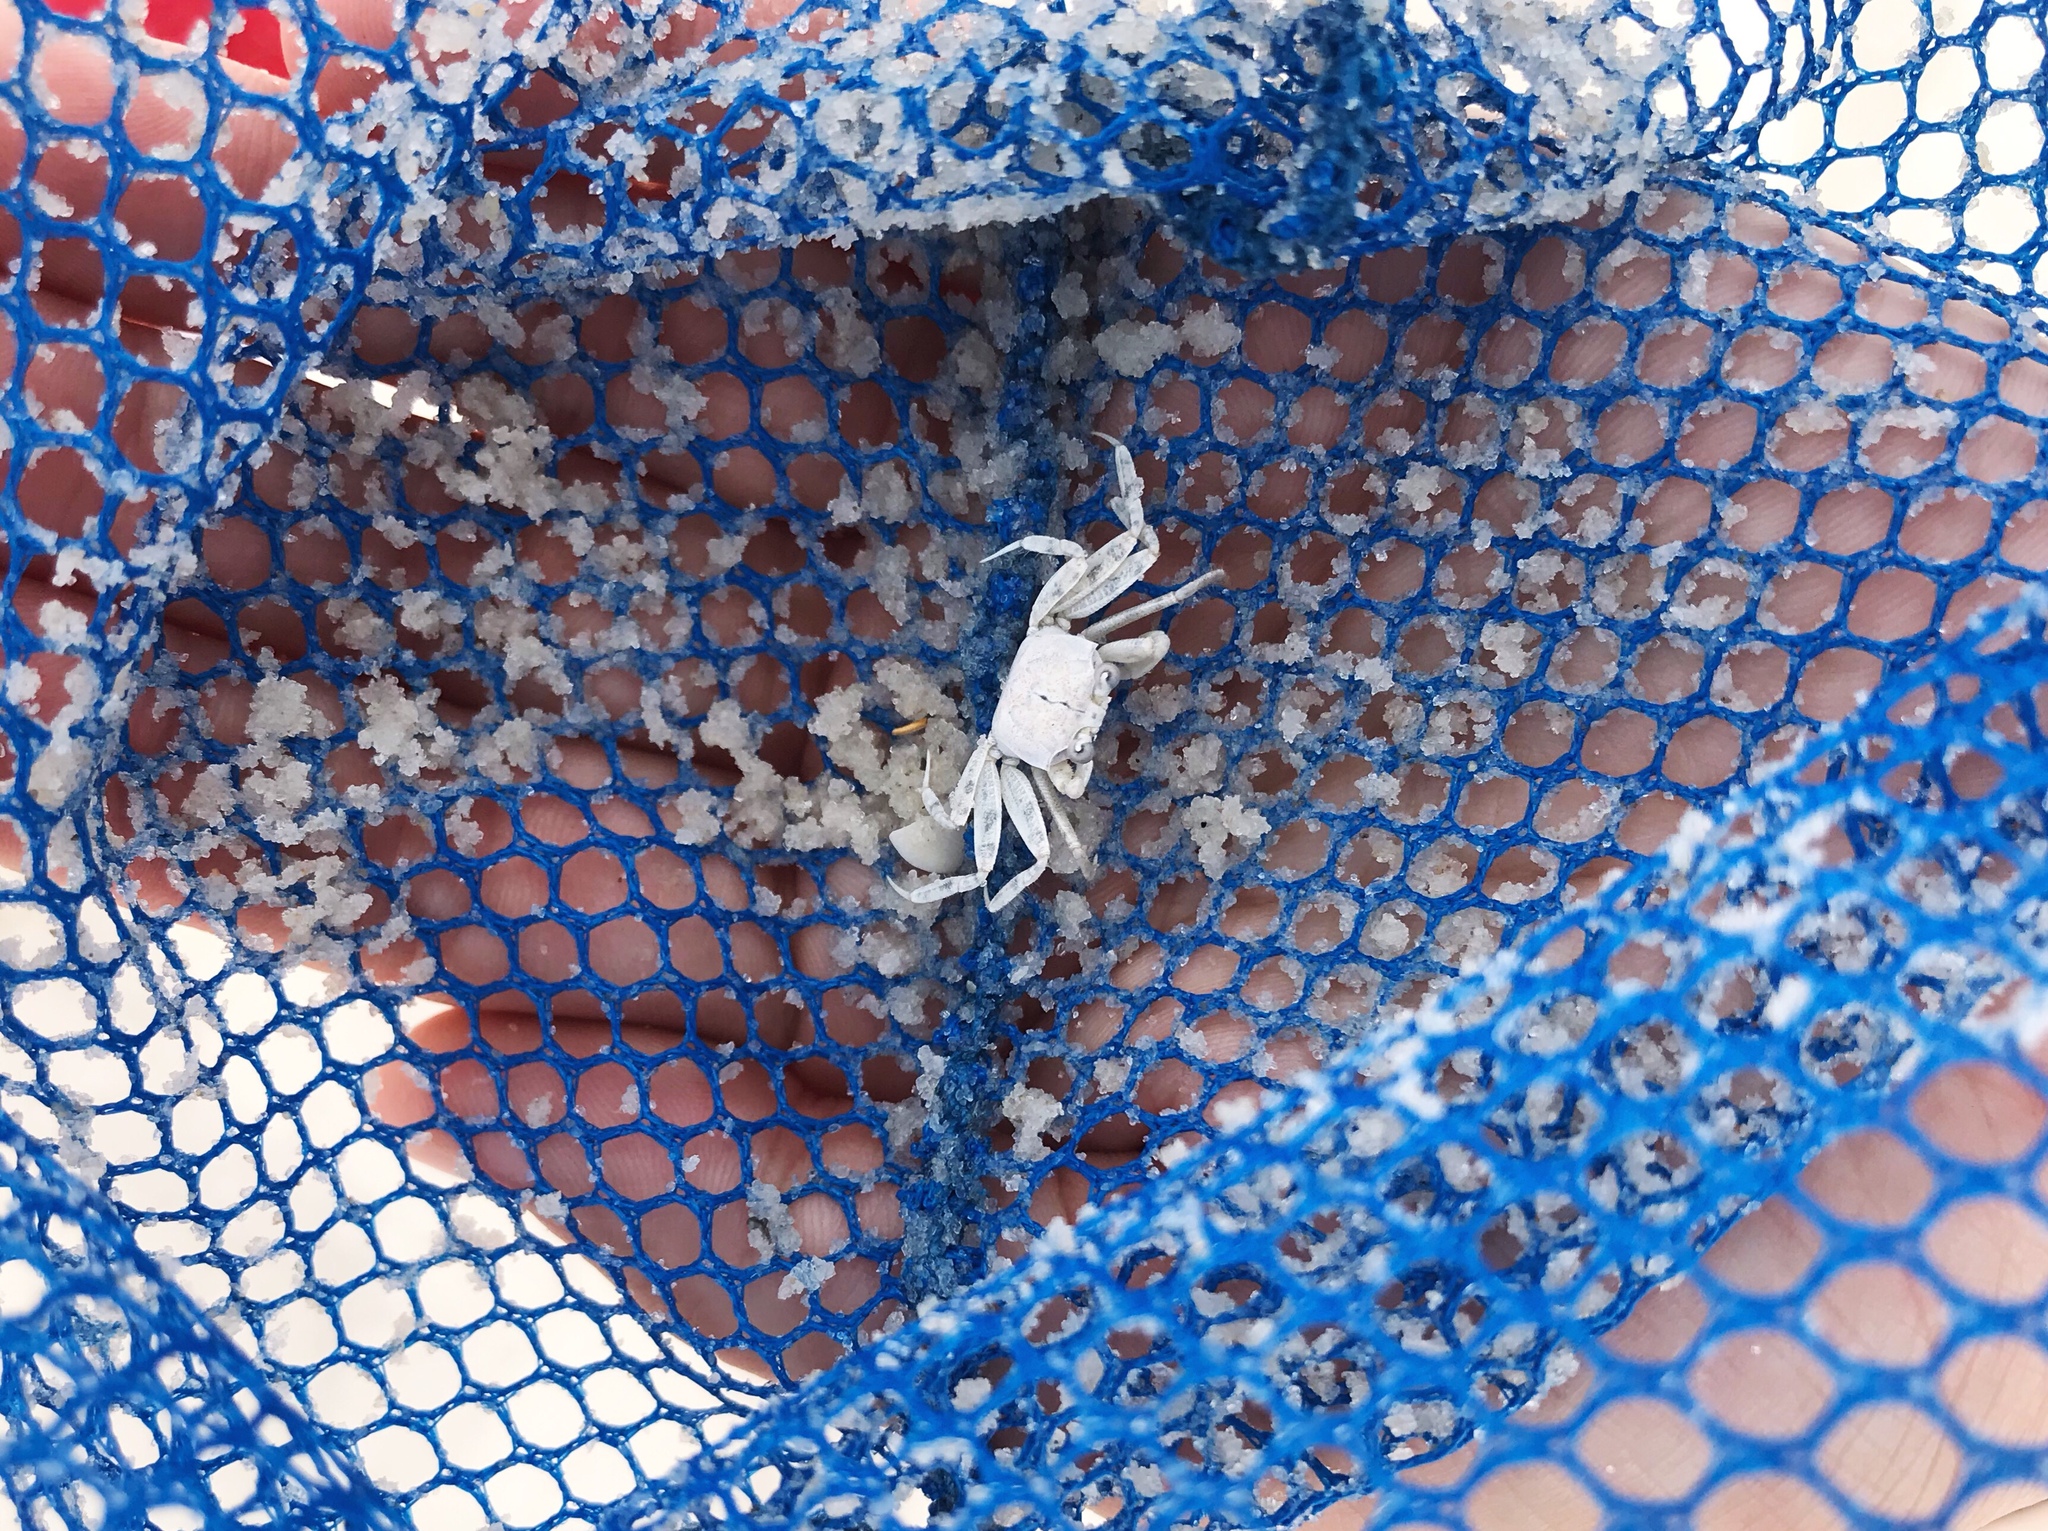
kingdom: Animalia
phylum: Arthropoda
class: Malacostraca
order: Decapoda
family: Ocypodidae
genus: Ocypode
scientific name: Ocypode quadrata
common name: Ghost crab
